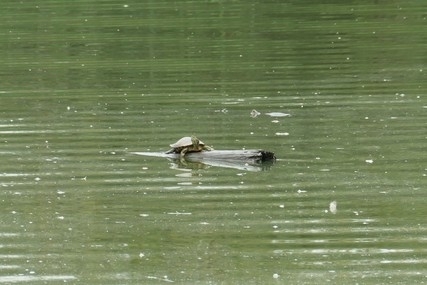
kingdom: Animalia
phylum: Chordata
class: Testudines
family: Emydidae
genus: Trachemys
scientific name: Trachemys scripta
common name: Slider
